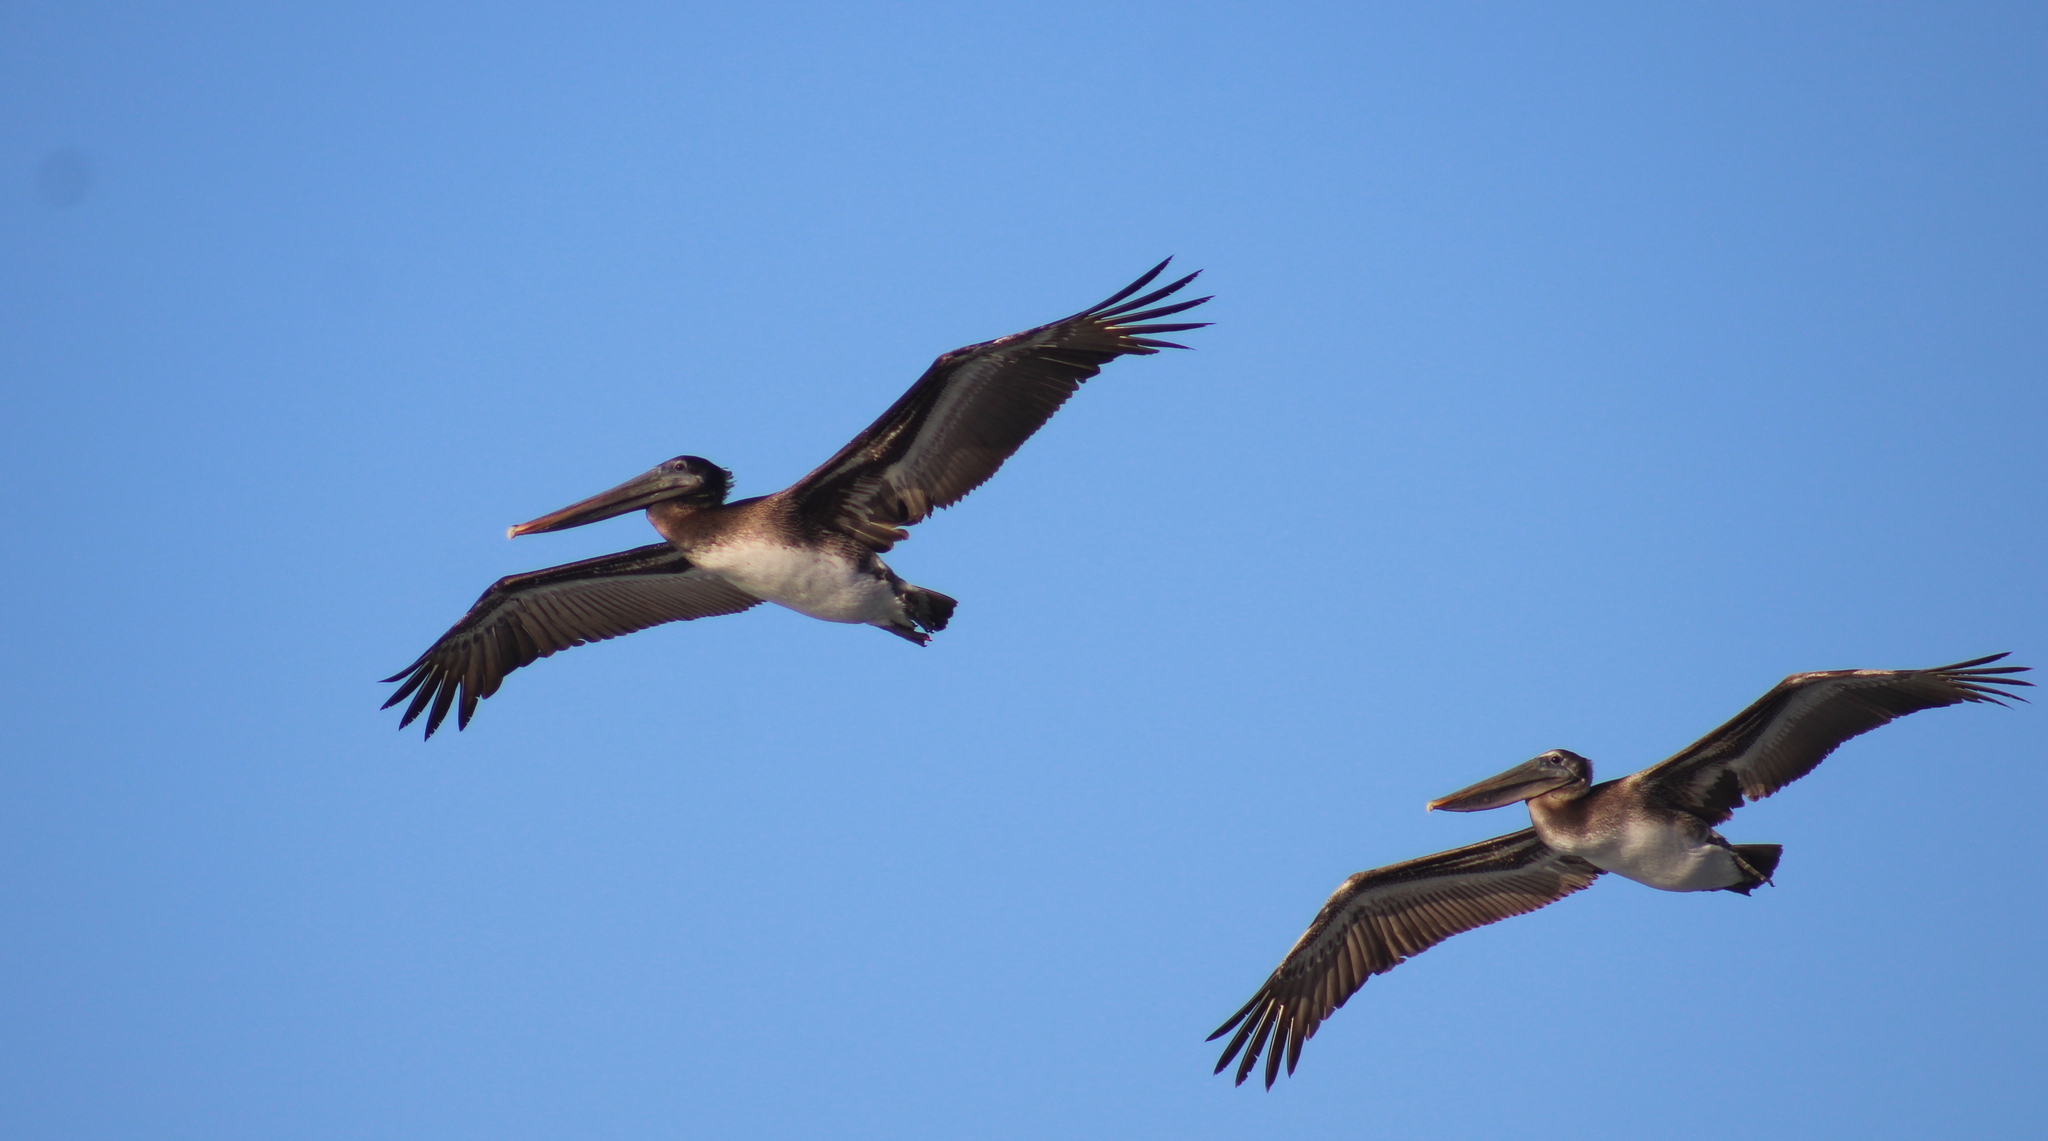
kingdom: Animalia
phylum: Chordata
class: Aves
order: Pelecaniformes
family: Pelecanidae
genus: Pelecanus
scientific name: Pelecanus occidentalis
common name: Brown pelican
